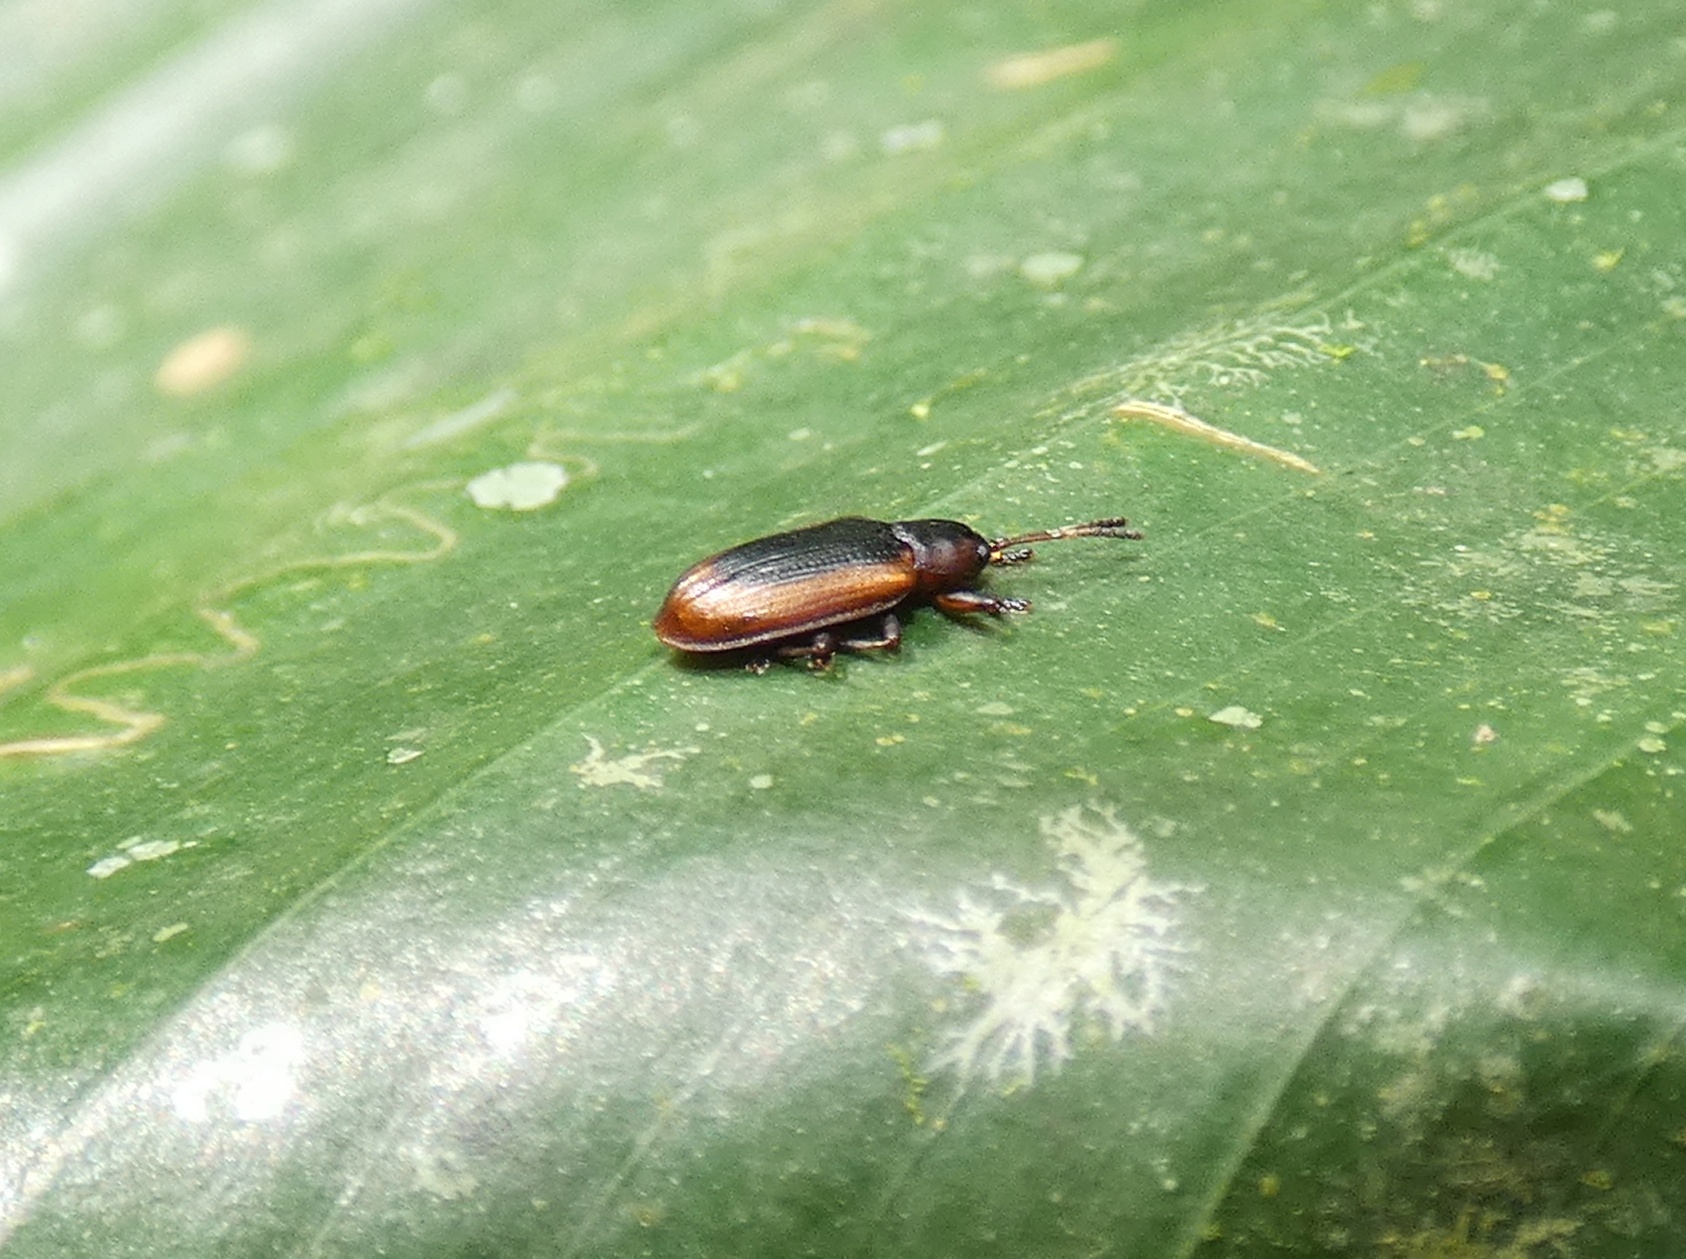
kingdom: Animalia
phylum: Arthropoda
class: Insecta
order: Coleoptera
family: Chrysomelidae
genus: Prosopodonta
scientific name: Prosopodonta deplanata
